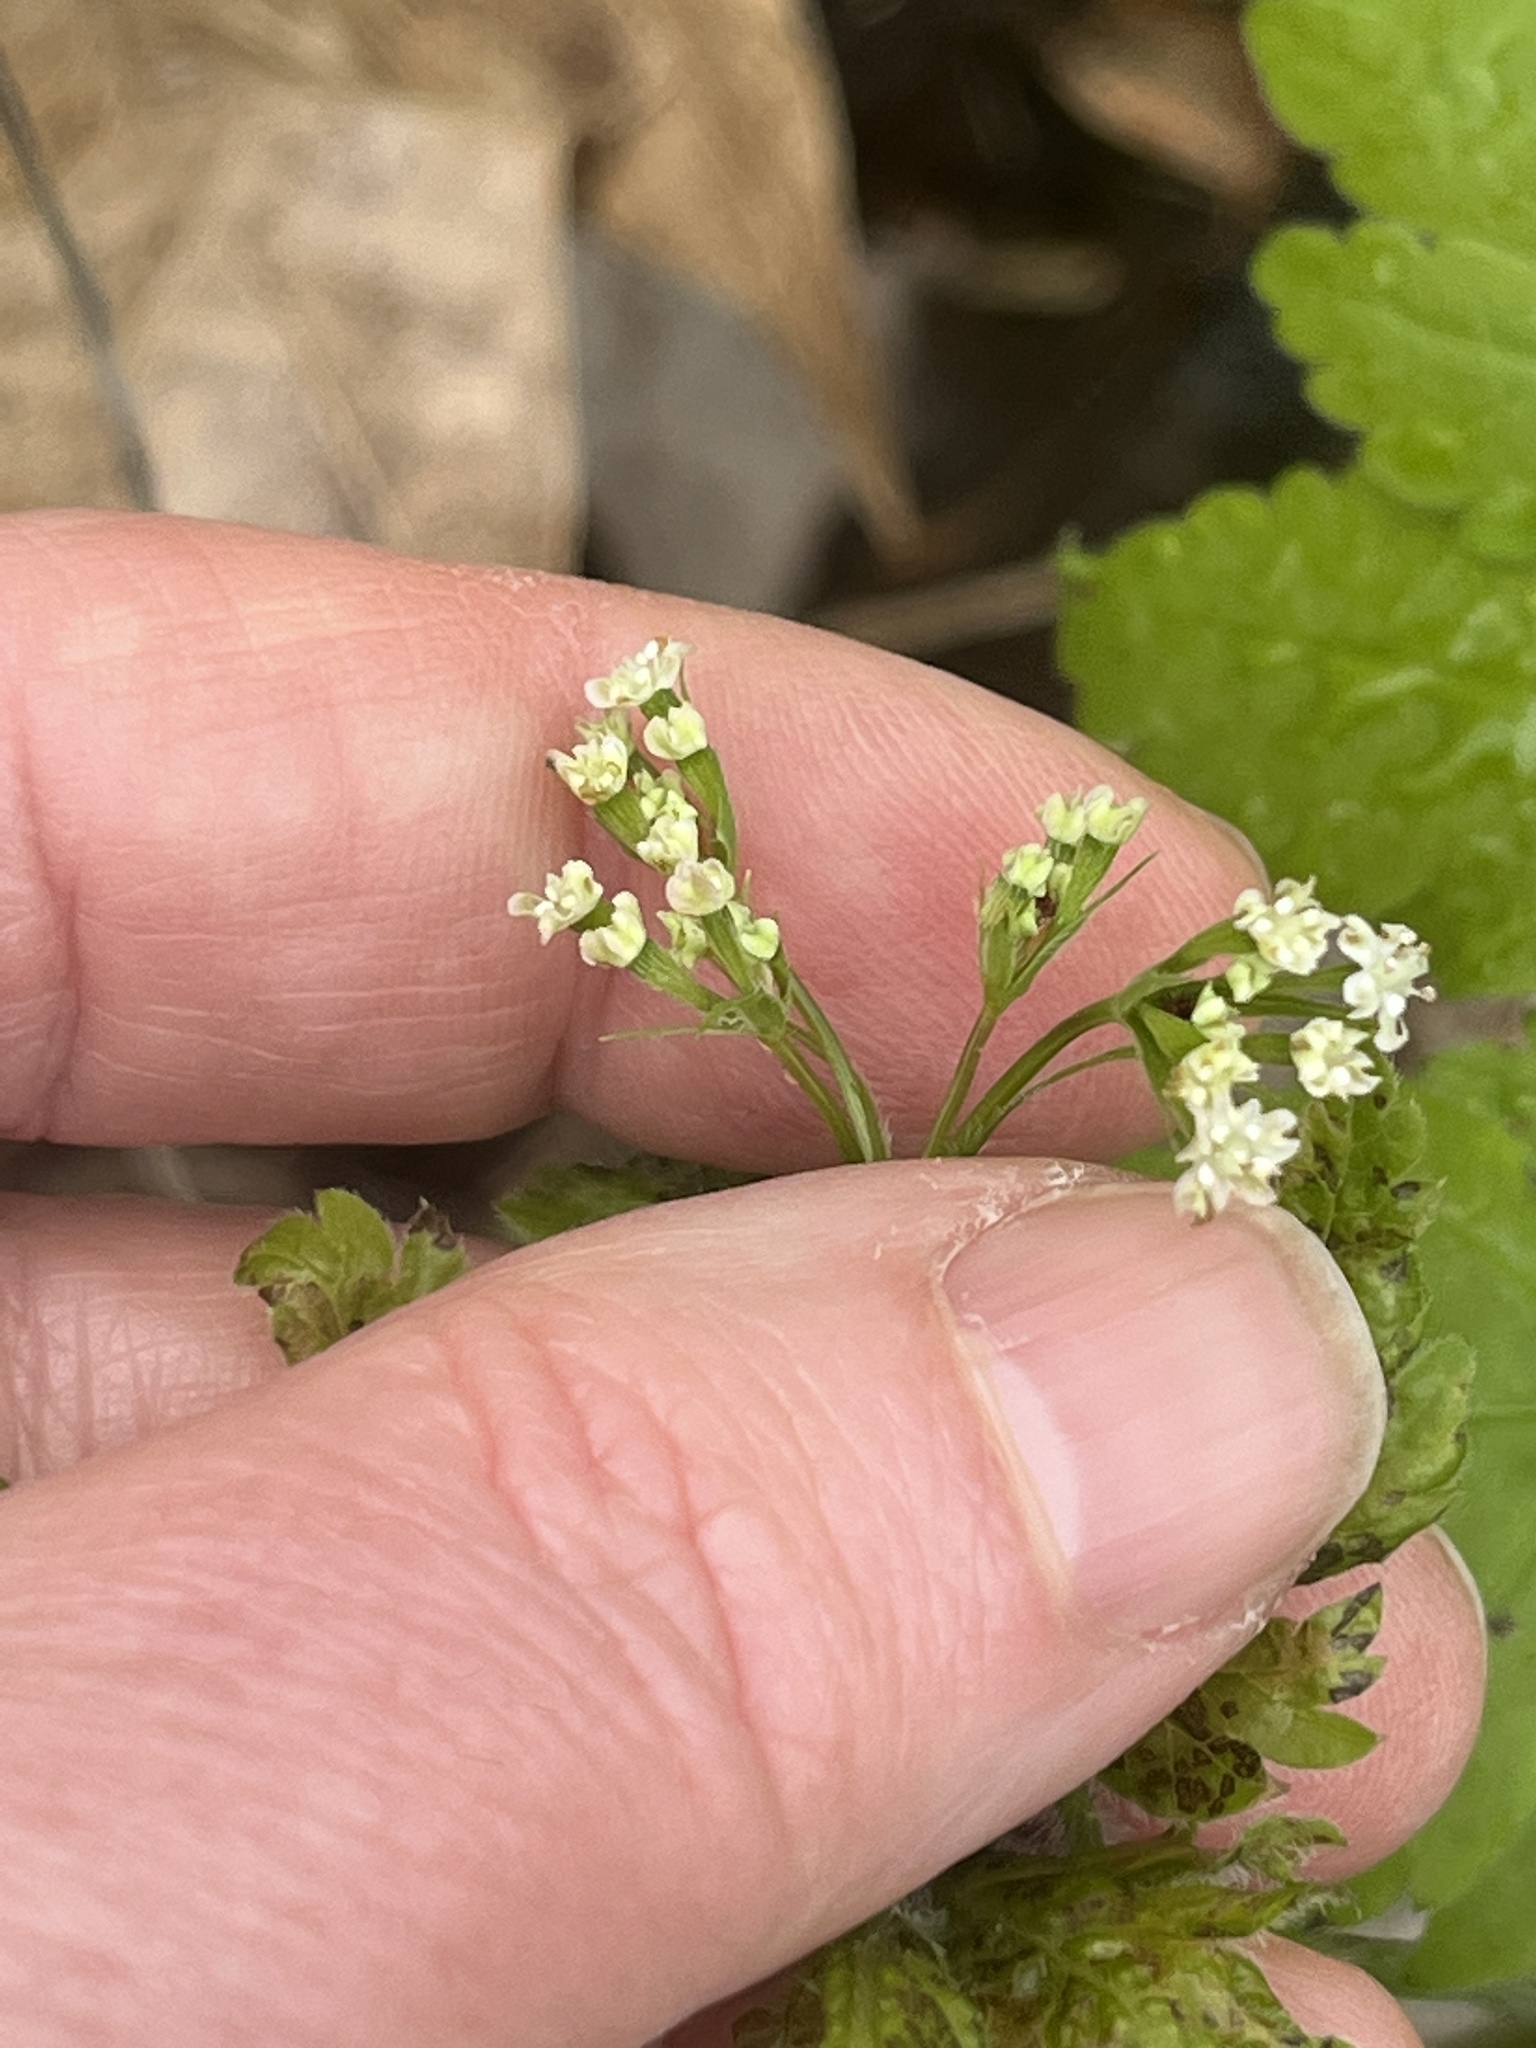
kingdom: Plantae
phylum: Tracheophyta
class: Magnoliopsida
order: Apiales
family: Apiaceae
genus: Osmorhiza
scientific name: Osmorhiza claytonii
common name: Hairy sweet cicely
